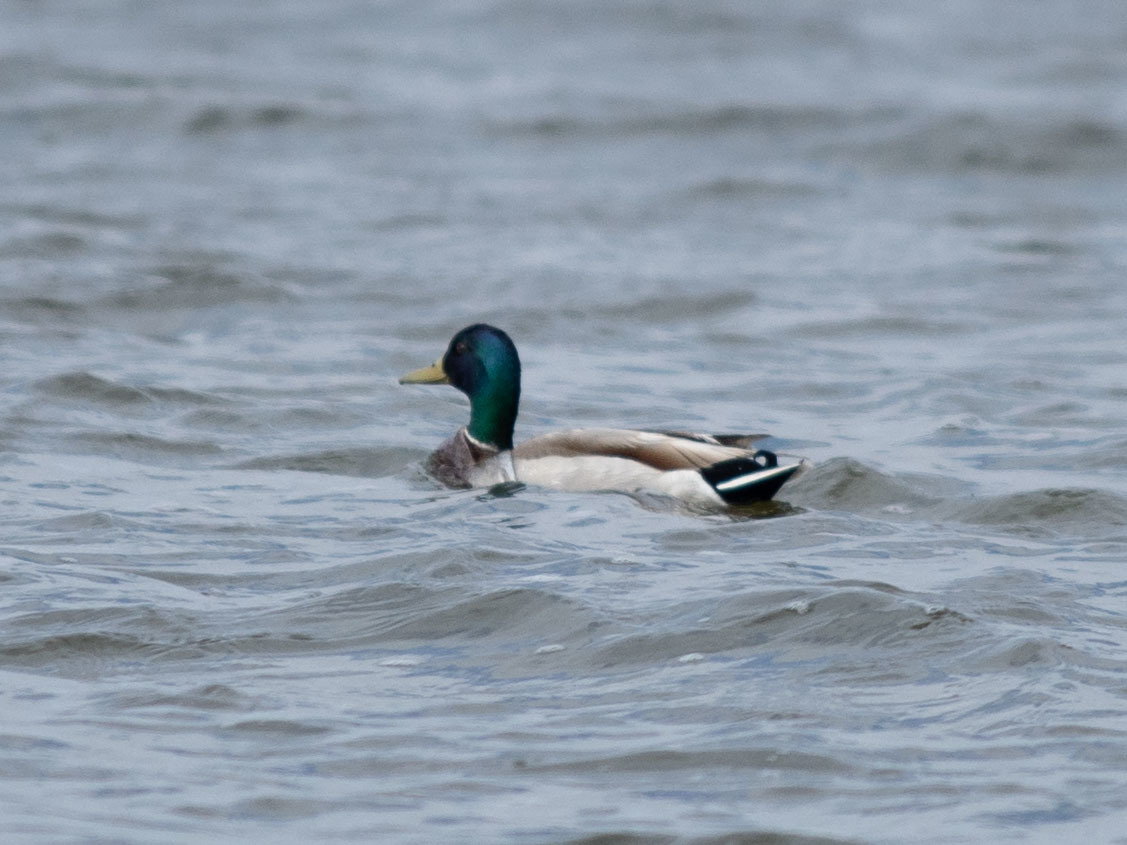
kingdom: Animalia
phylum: Chordata
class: Aves
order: Anseriformes
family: Anatidae
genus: Anas
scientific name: Anas platyrhynchos
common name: Mallard
